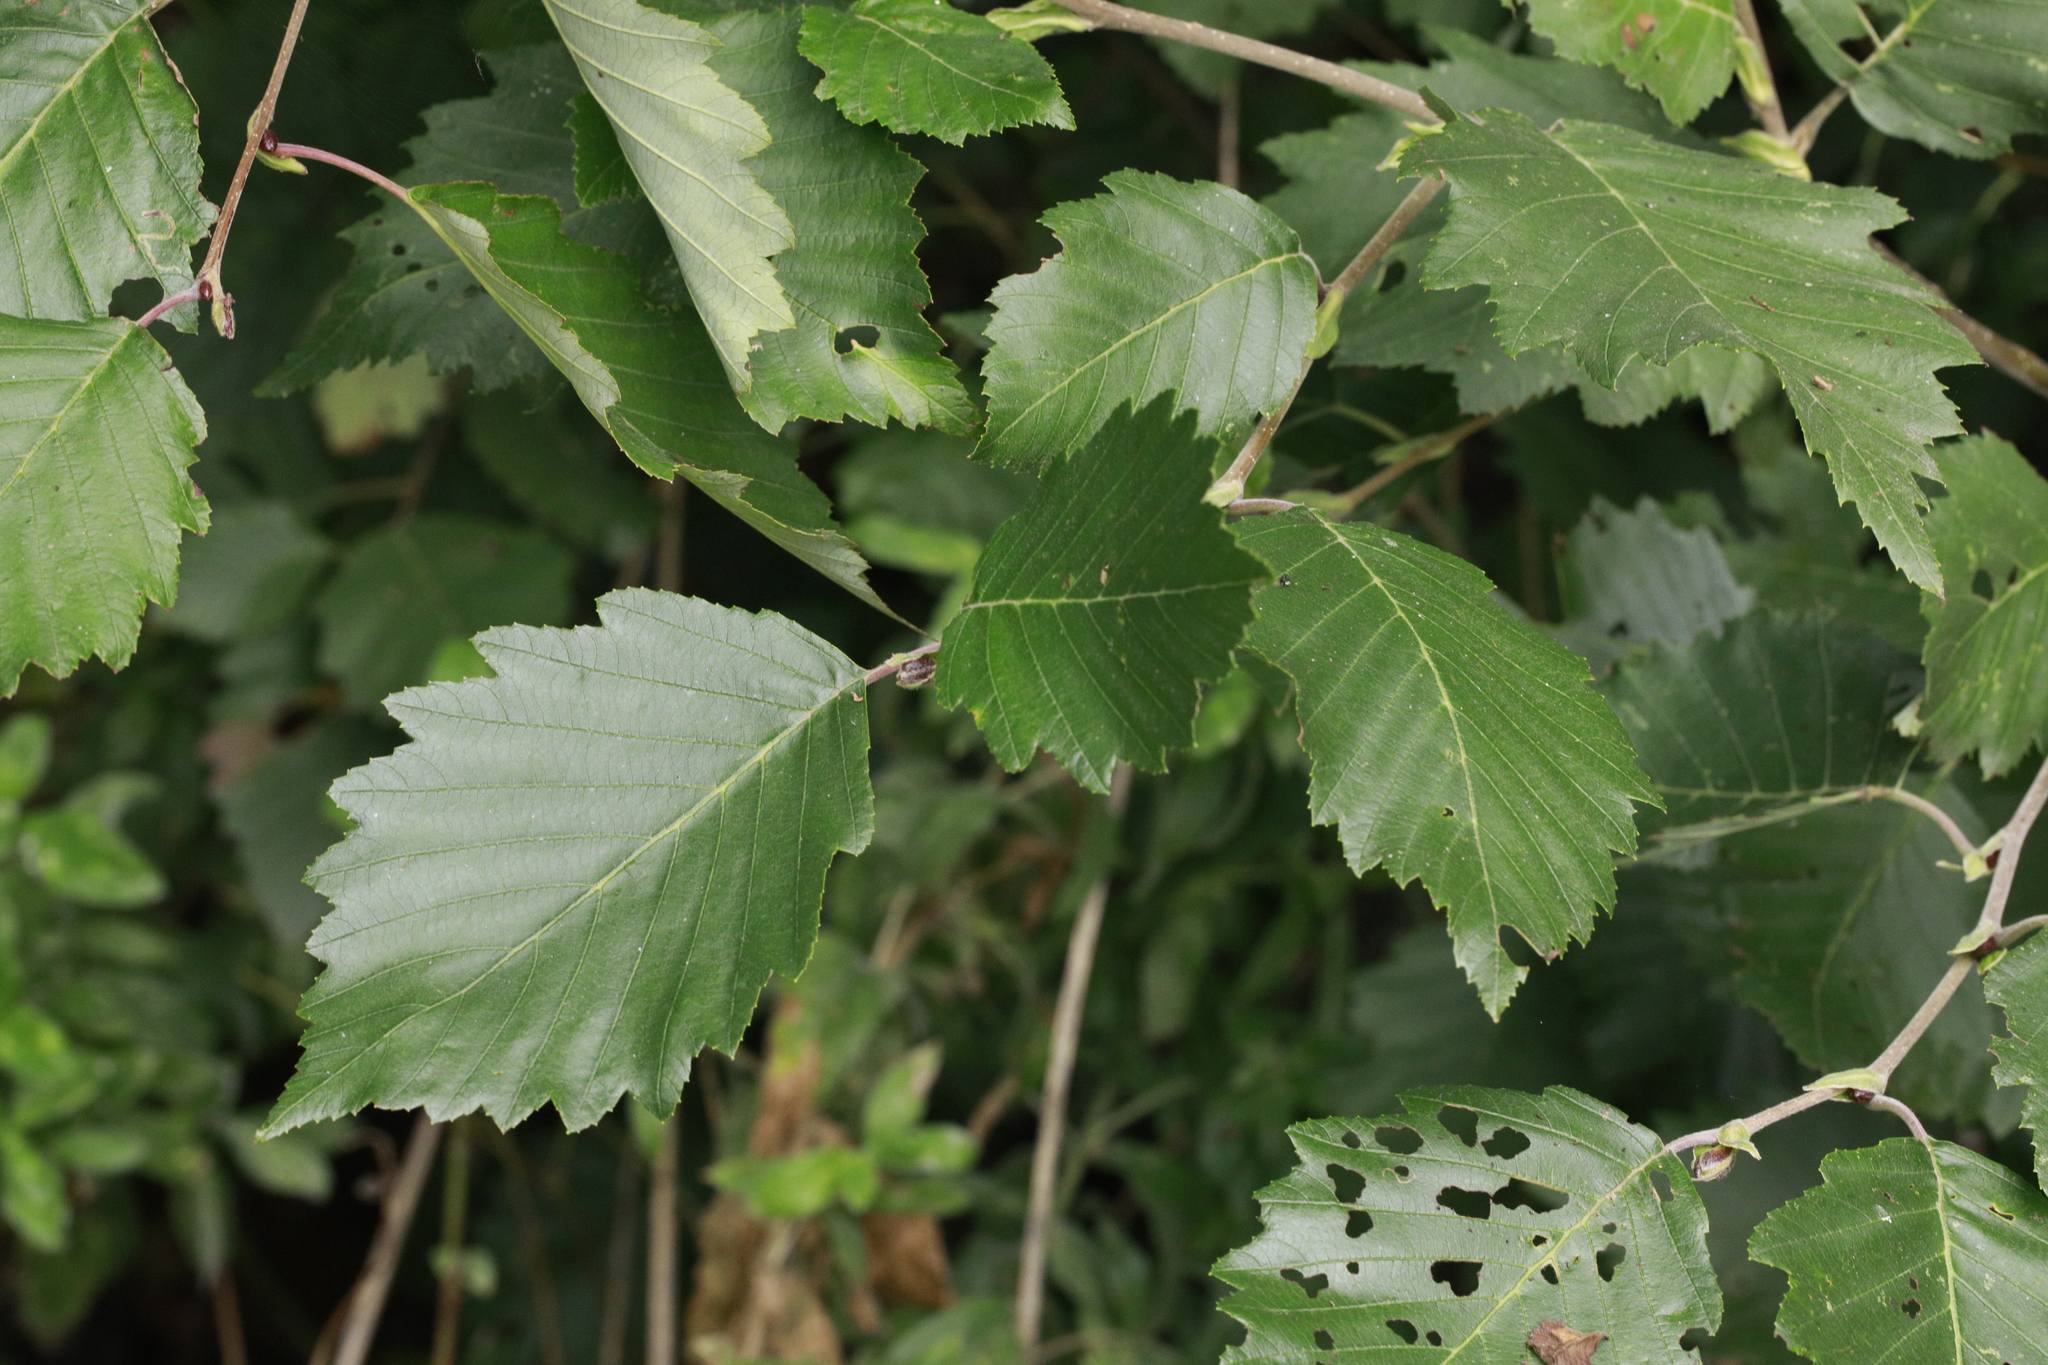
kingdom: Plantae
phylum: Tracheophyta
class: Magnoliopsida
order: Fagales
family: Betulaceae
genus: Alnus
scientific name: Alnus incana
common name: Grey alder
